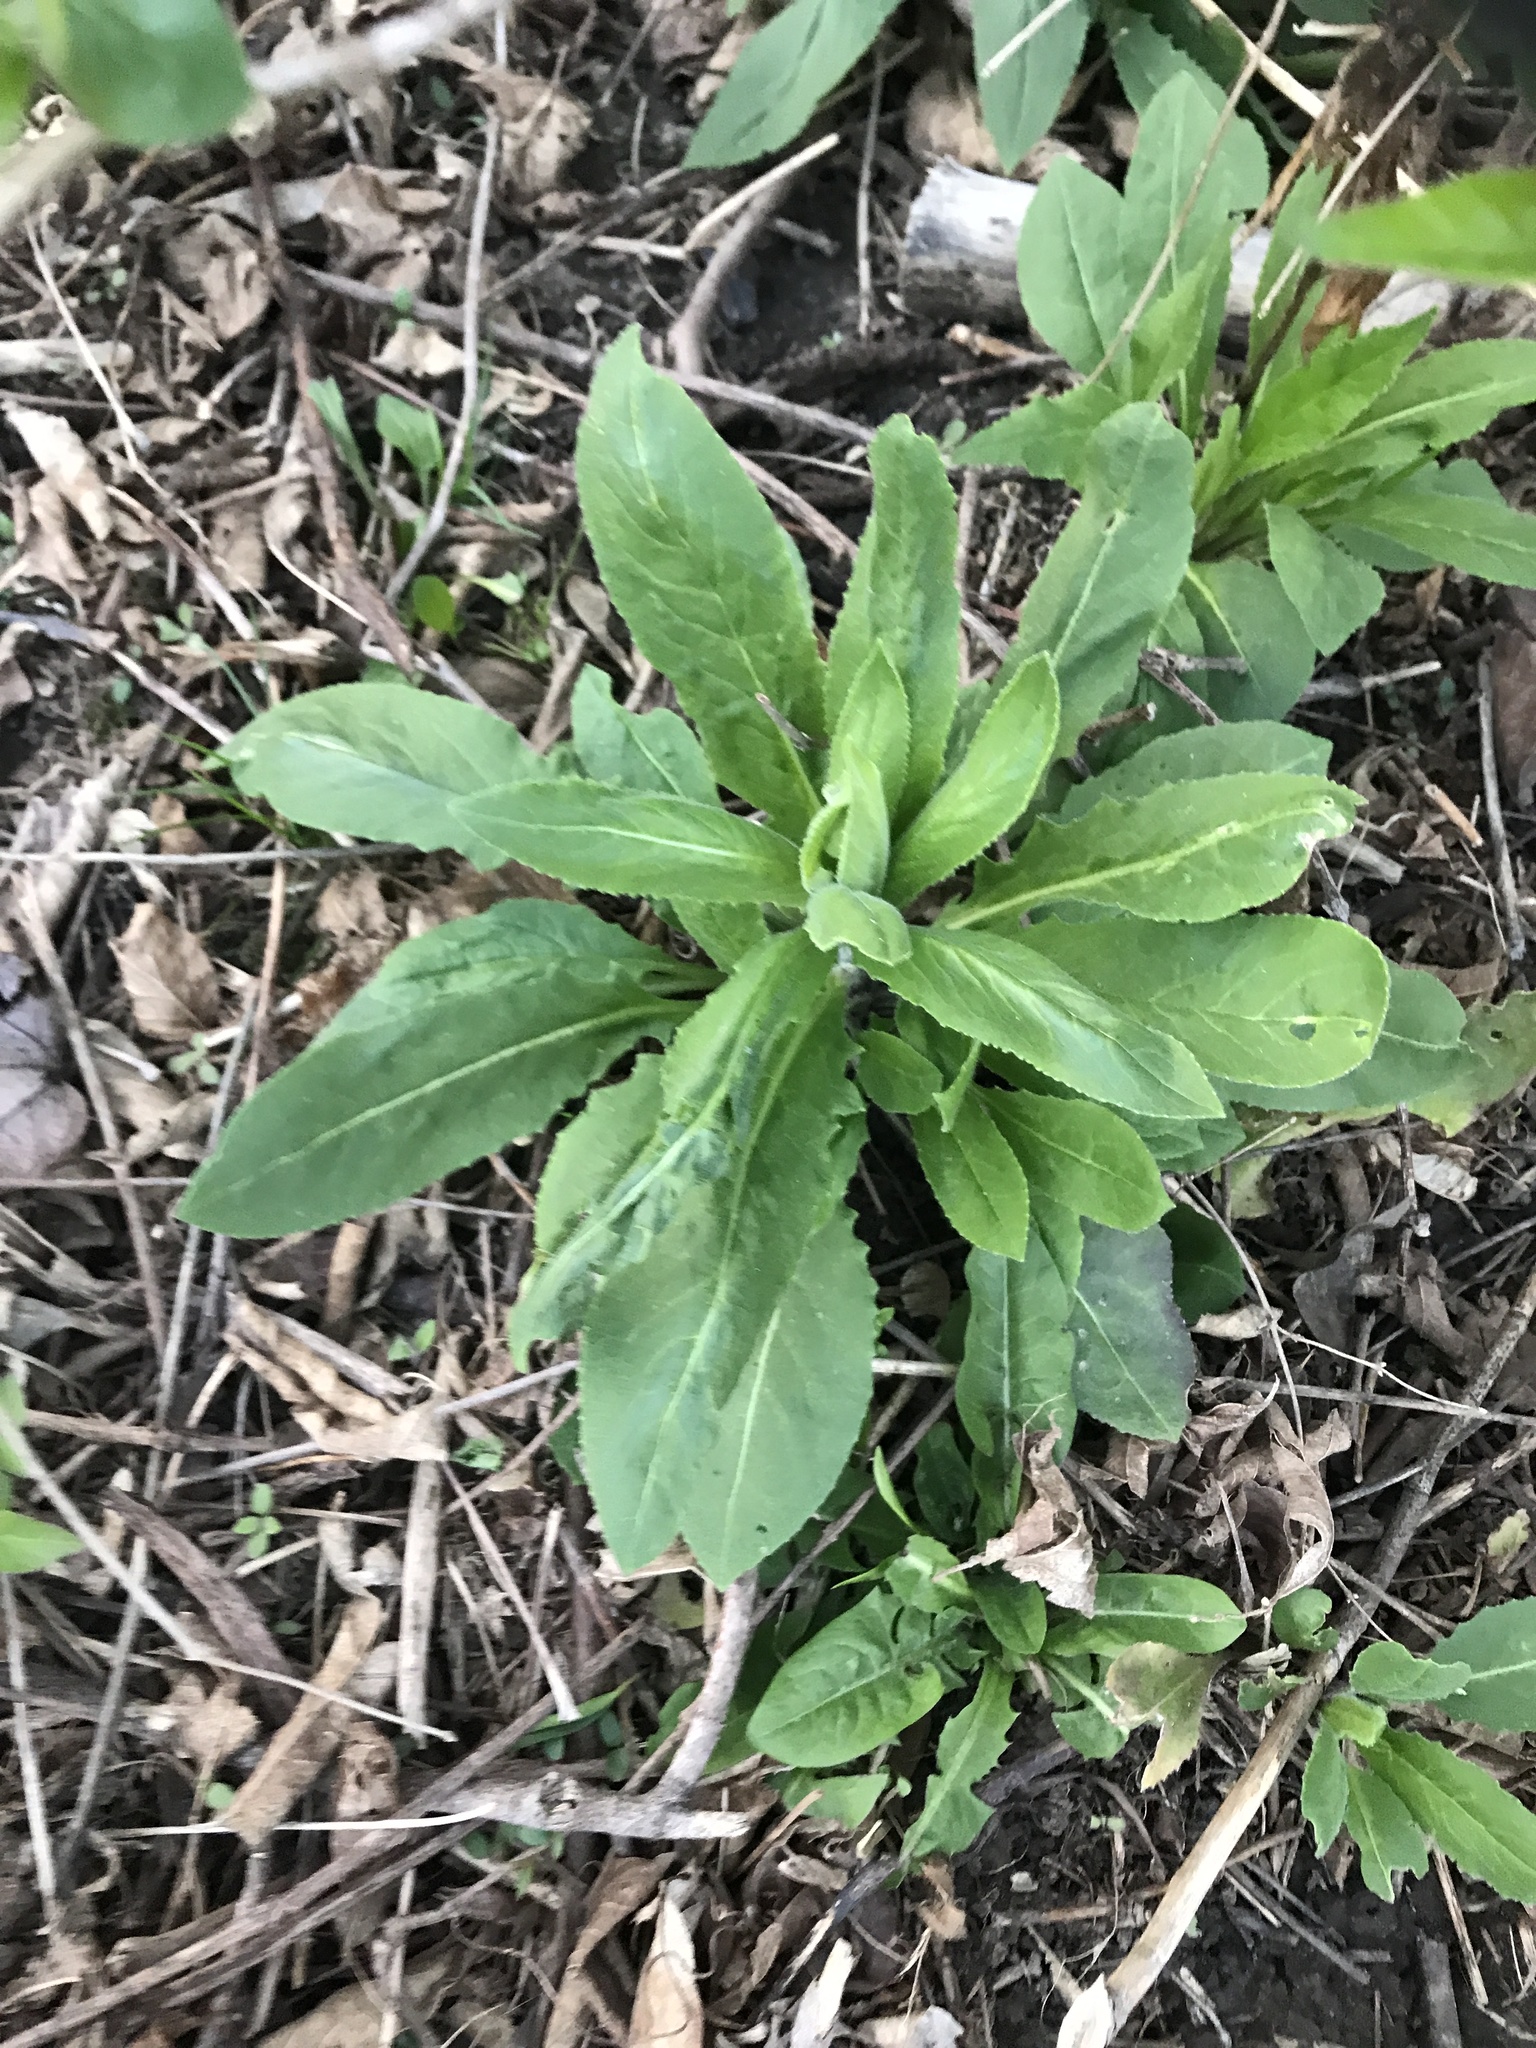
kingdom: Plantae
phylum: Tracheophyta
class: Magnoliopsida
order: Brassicales
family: Brassicaceae
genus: Hesperis
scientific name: Hesperis matronalis
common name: Dame's-violet
